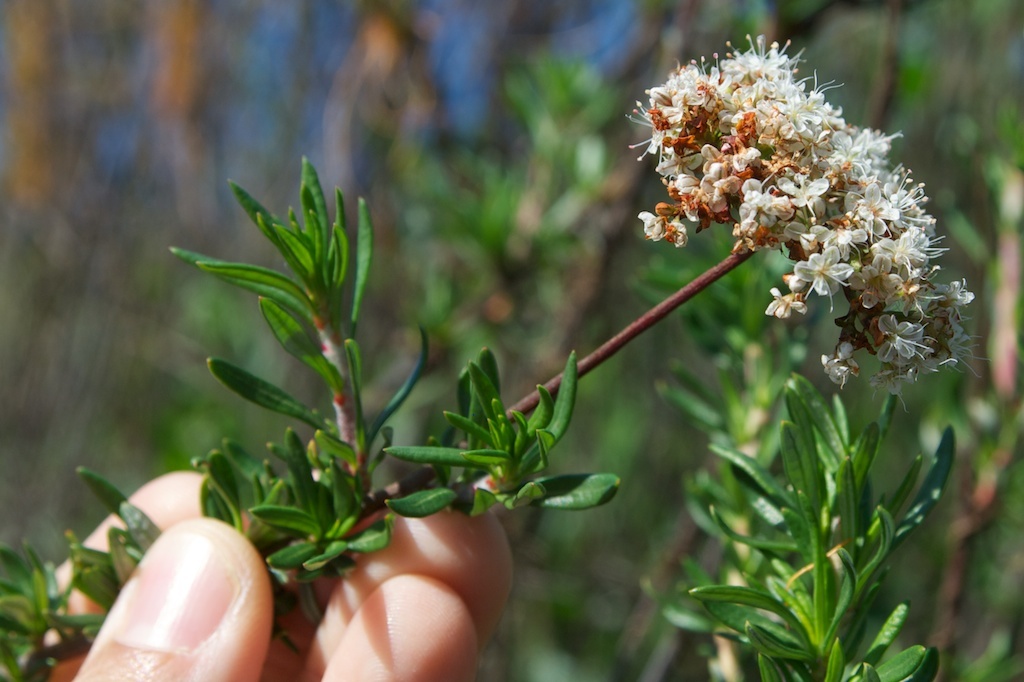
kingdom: Plantae
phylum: Tracheophyta
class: Magnoliopsida
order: Caryophyllales
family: Polygonaceae
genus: Eriogonum
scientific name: Eriogonum fasciculatum
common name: California wild buckwheat
